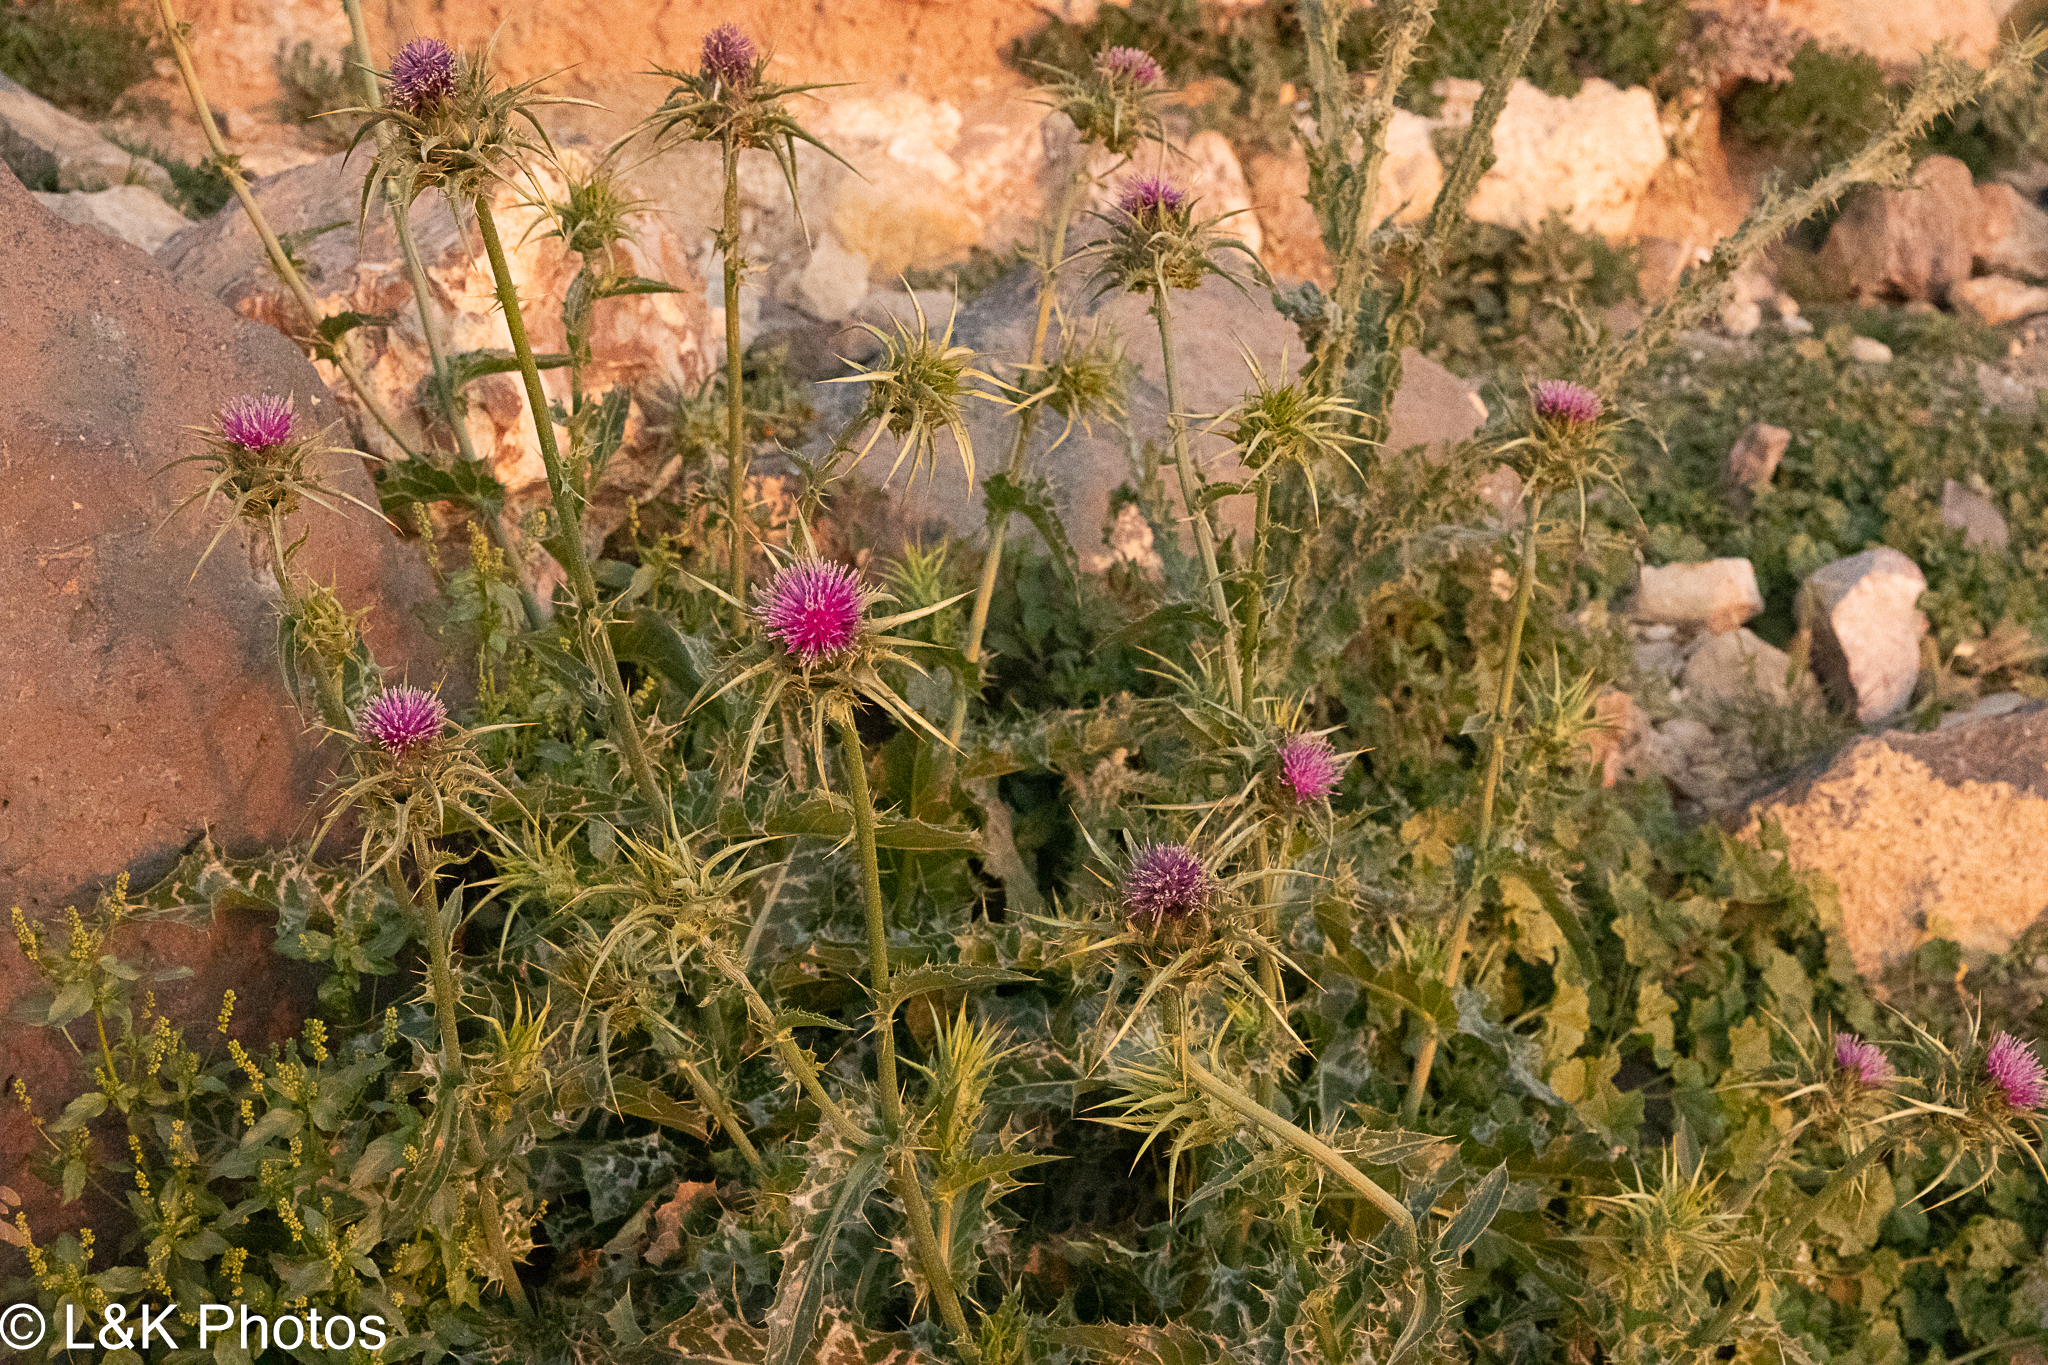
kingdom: Plantae
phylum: Tracheophyta
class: Magnoliopsida
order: Asterales
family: Asteraceae
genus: Silybum
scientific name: Silybum marianum
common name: Milk thistle
